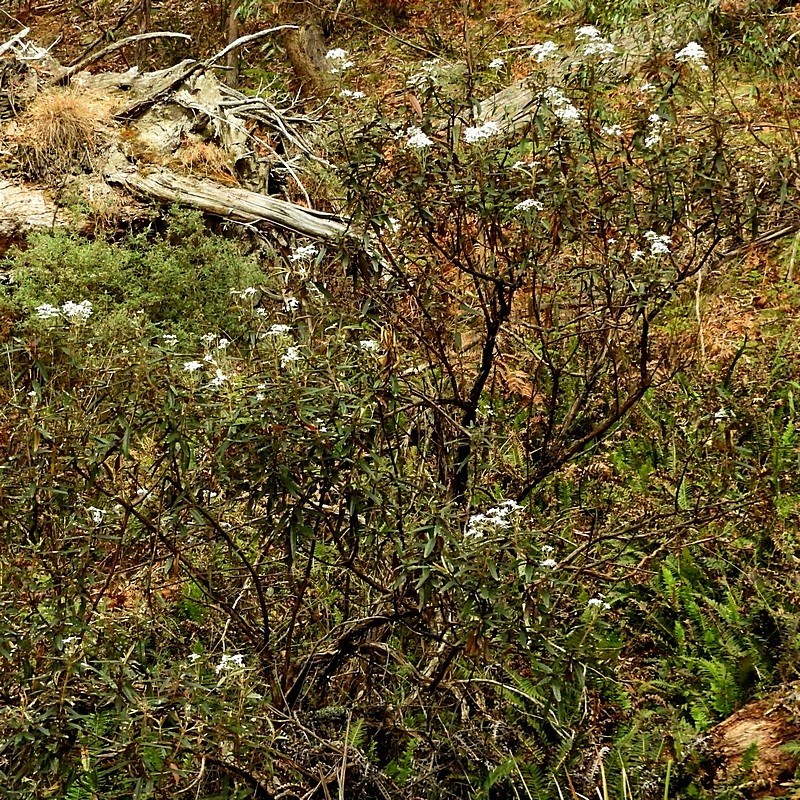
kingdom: Plantae
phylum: Tracheophyta
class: Magnoliopsida
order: Asterales
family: Asteraceae
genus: Olearia
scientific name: Olearia megalophylla
